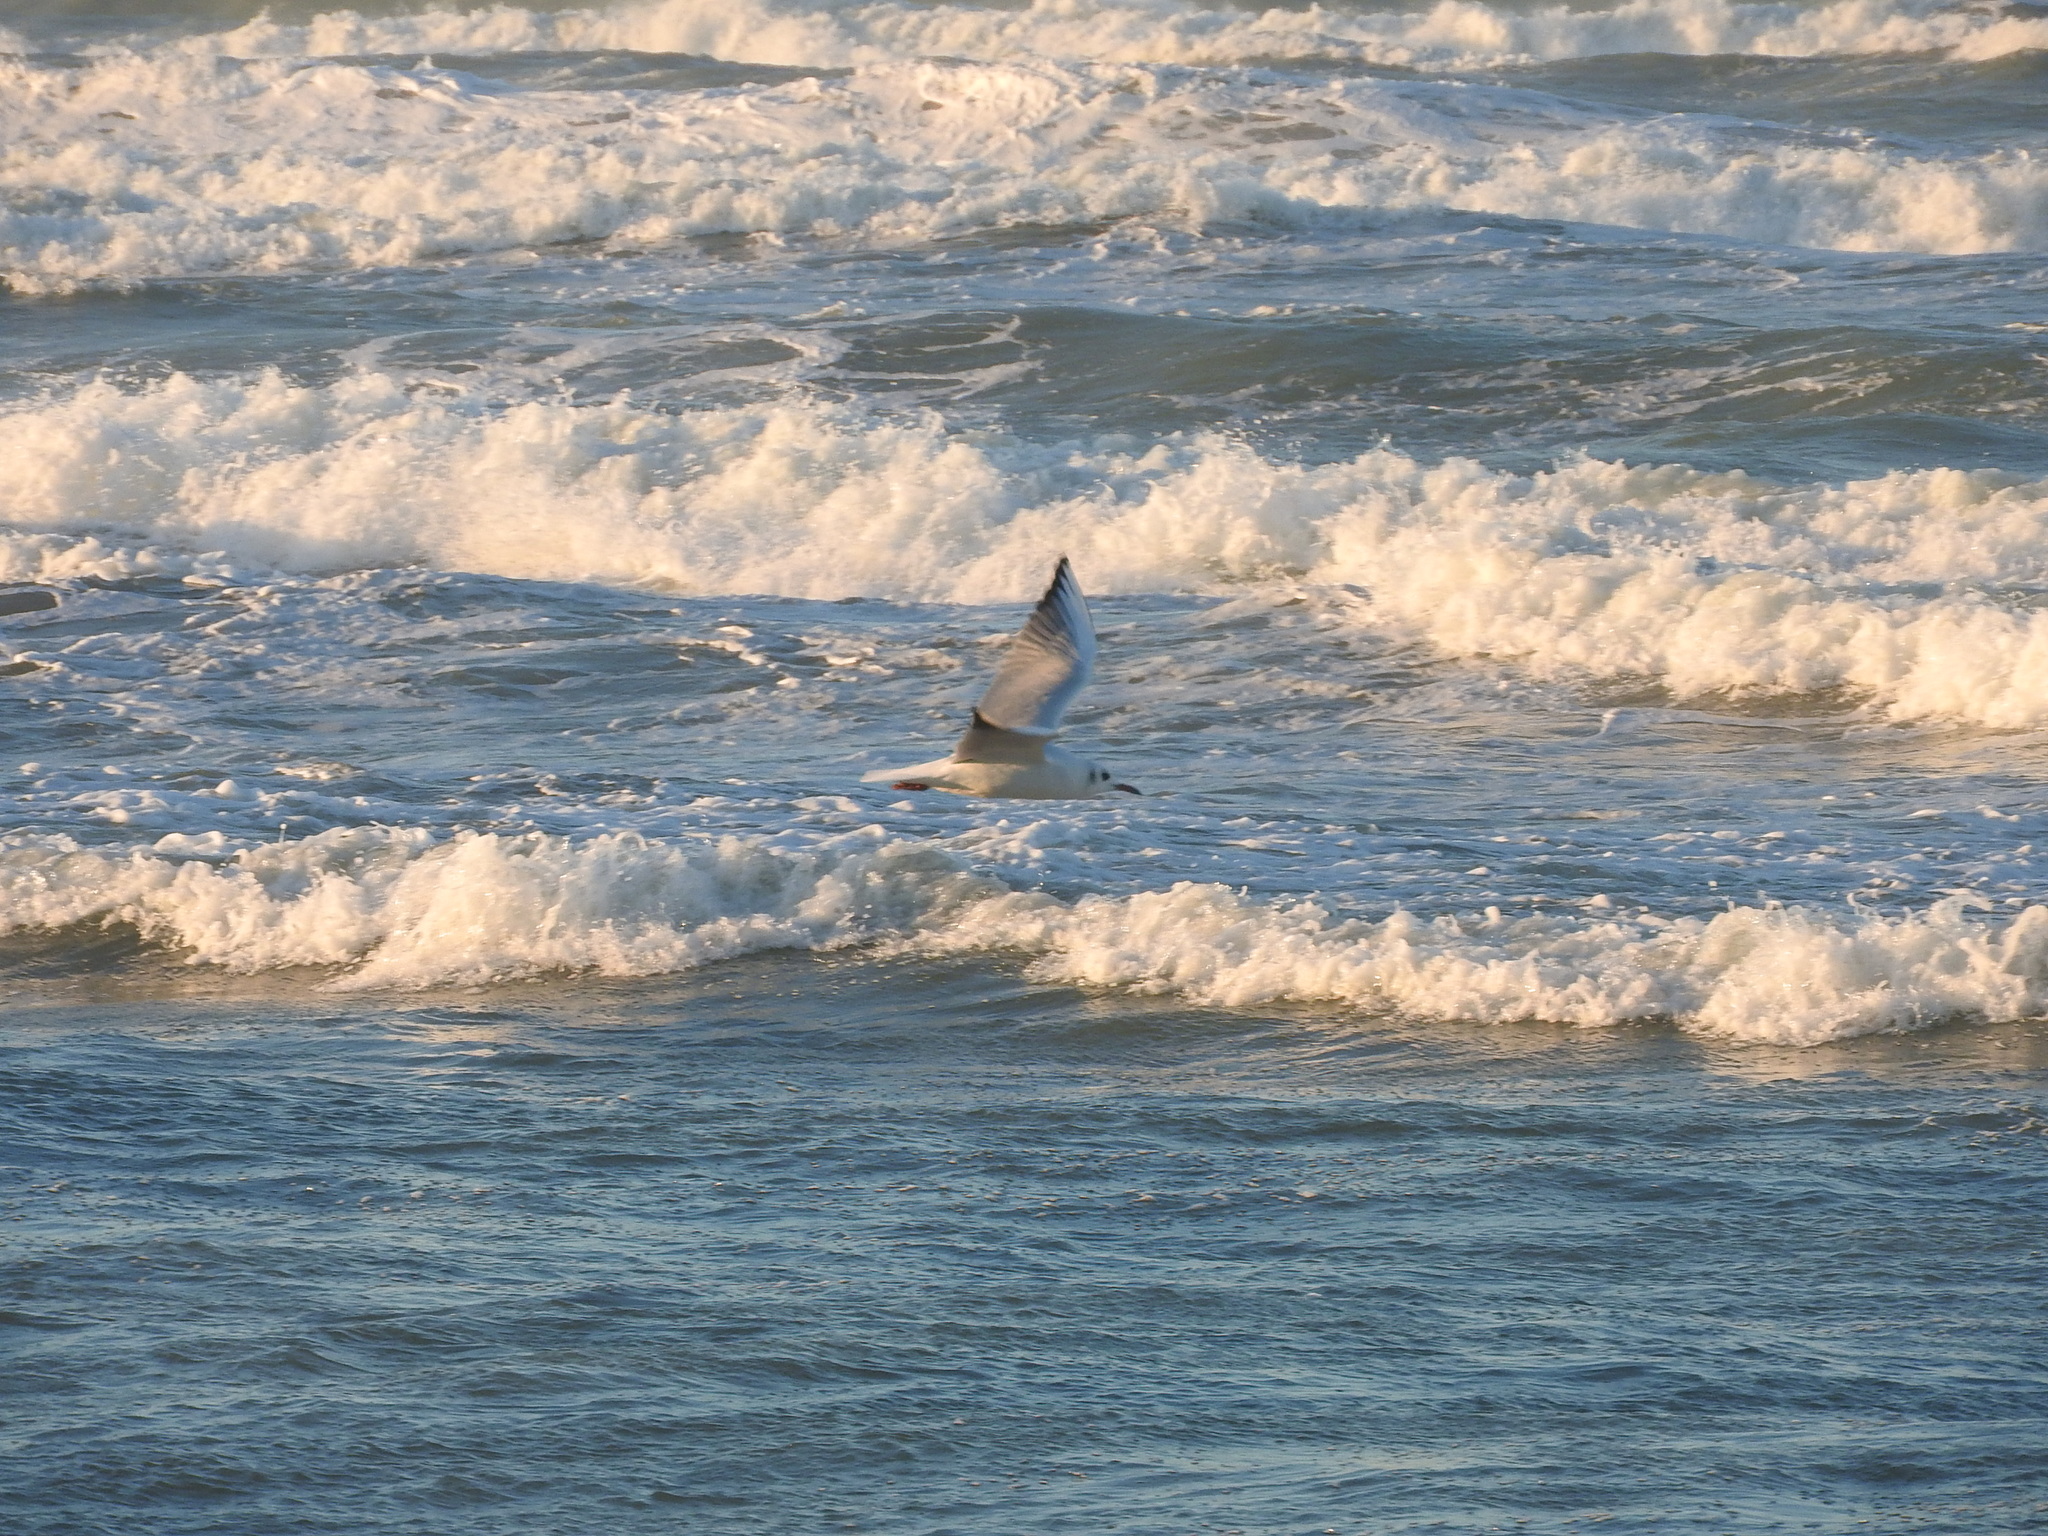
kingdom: Animalia
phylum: Chordata
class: Aves
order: Charadriiformes
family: Laridae
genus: Chroicocephalus
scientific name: Chroicocephalus ridibundus
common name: Black-headed gull
